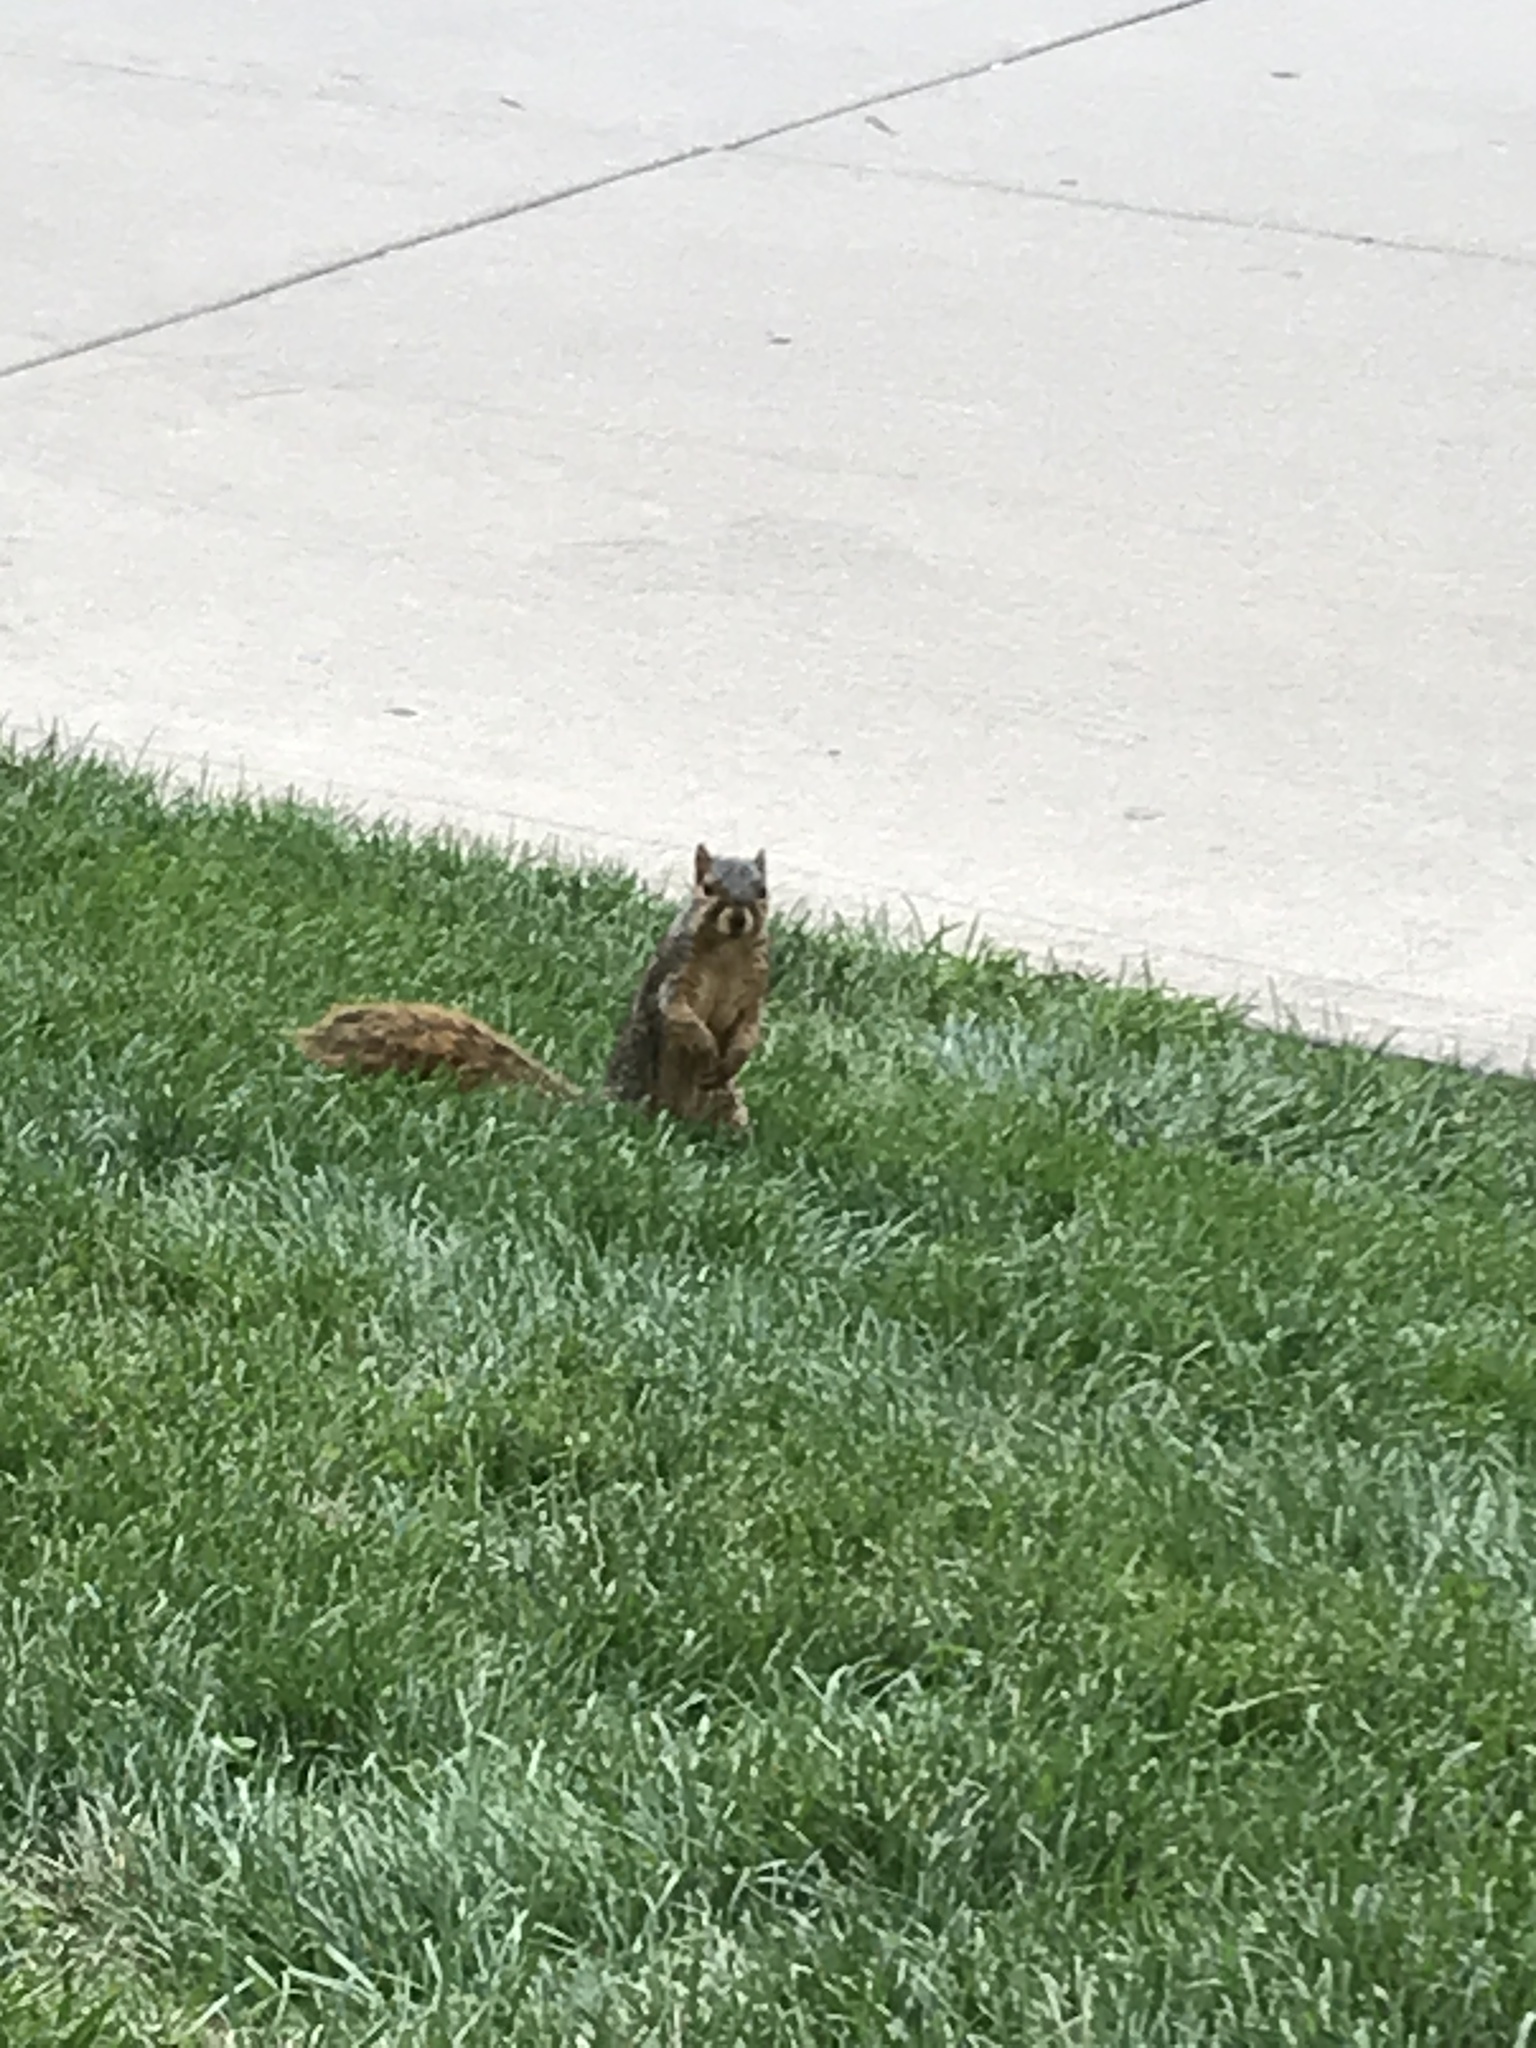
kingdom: Animalia
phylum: Chordata
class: Mammalia
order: Rodentia
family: Sciuridae
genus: Sciurus
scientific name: Sciurus niger
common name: Fox squirrel
